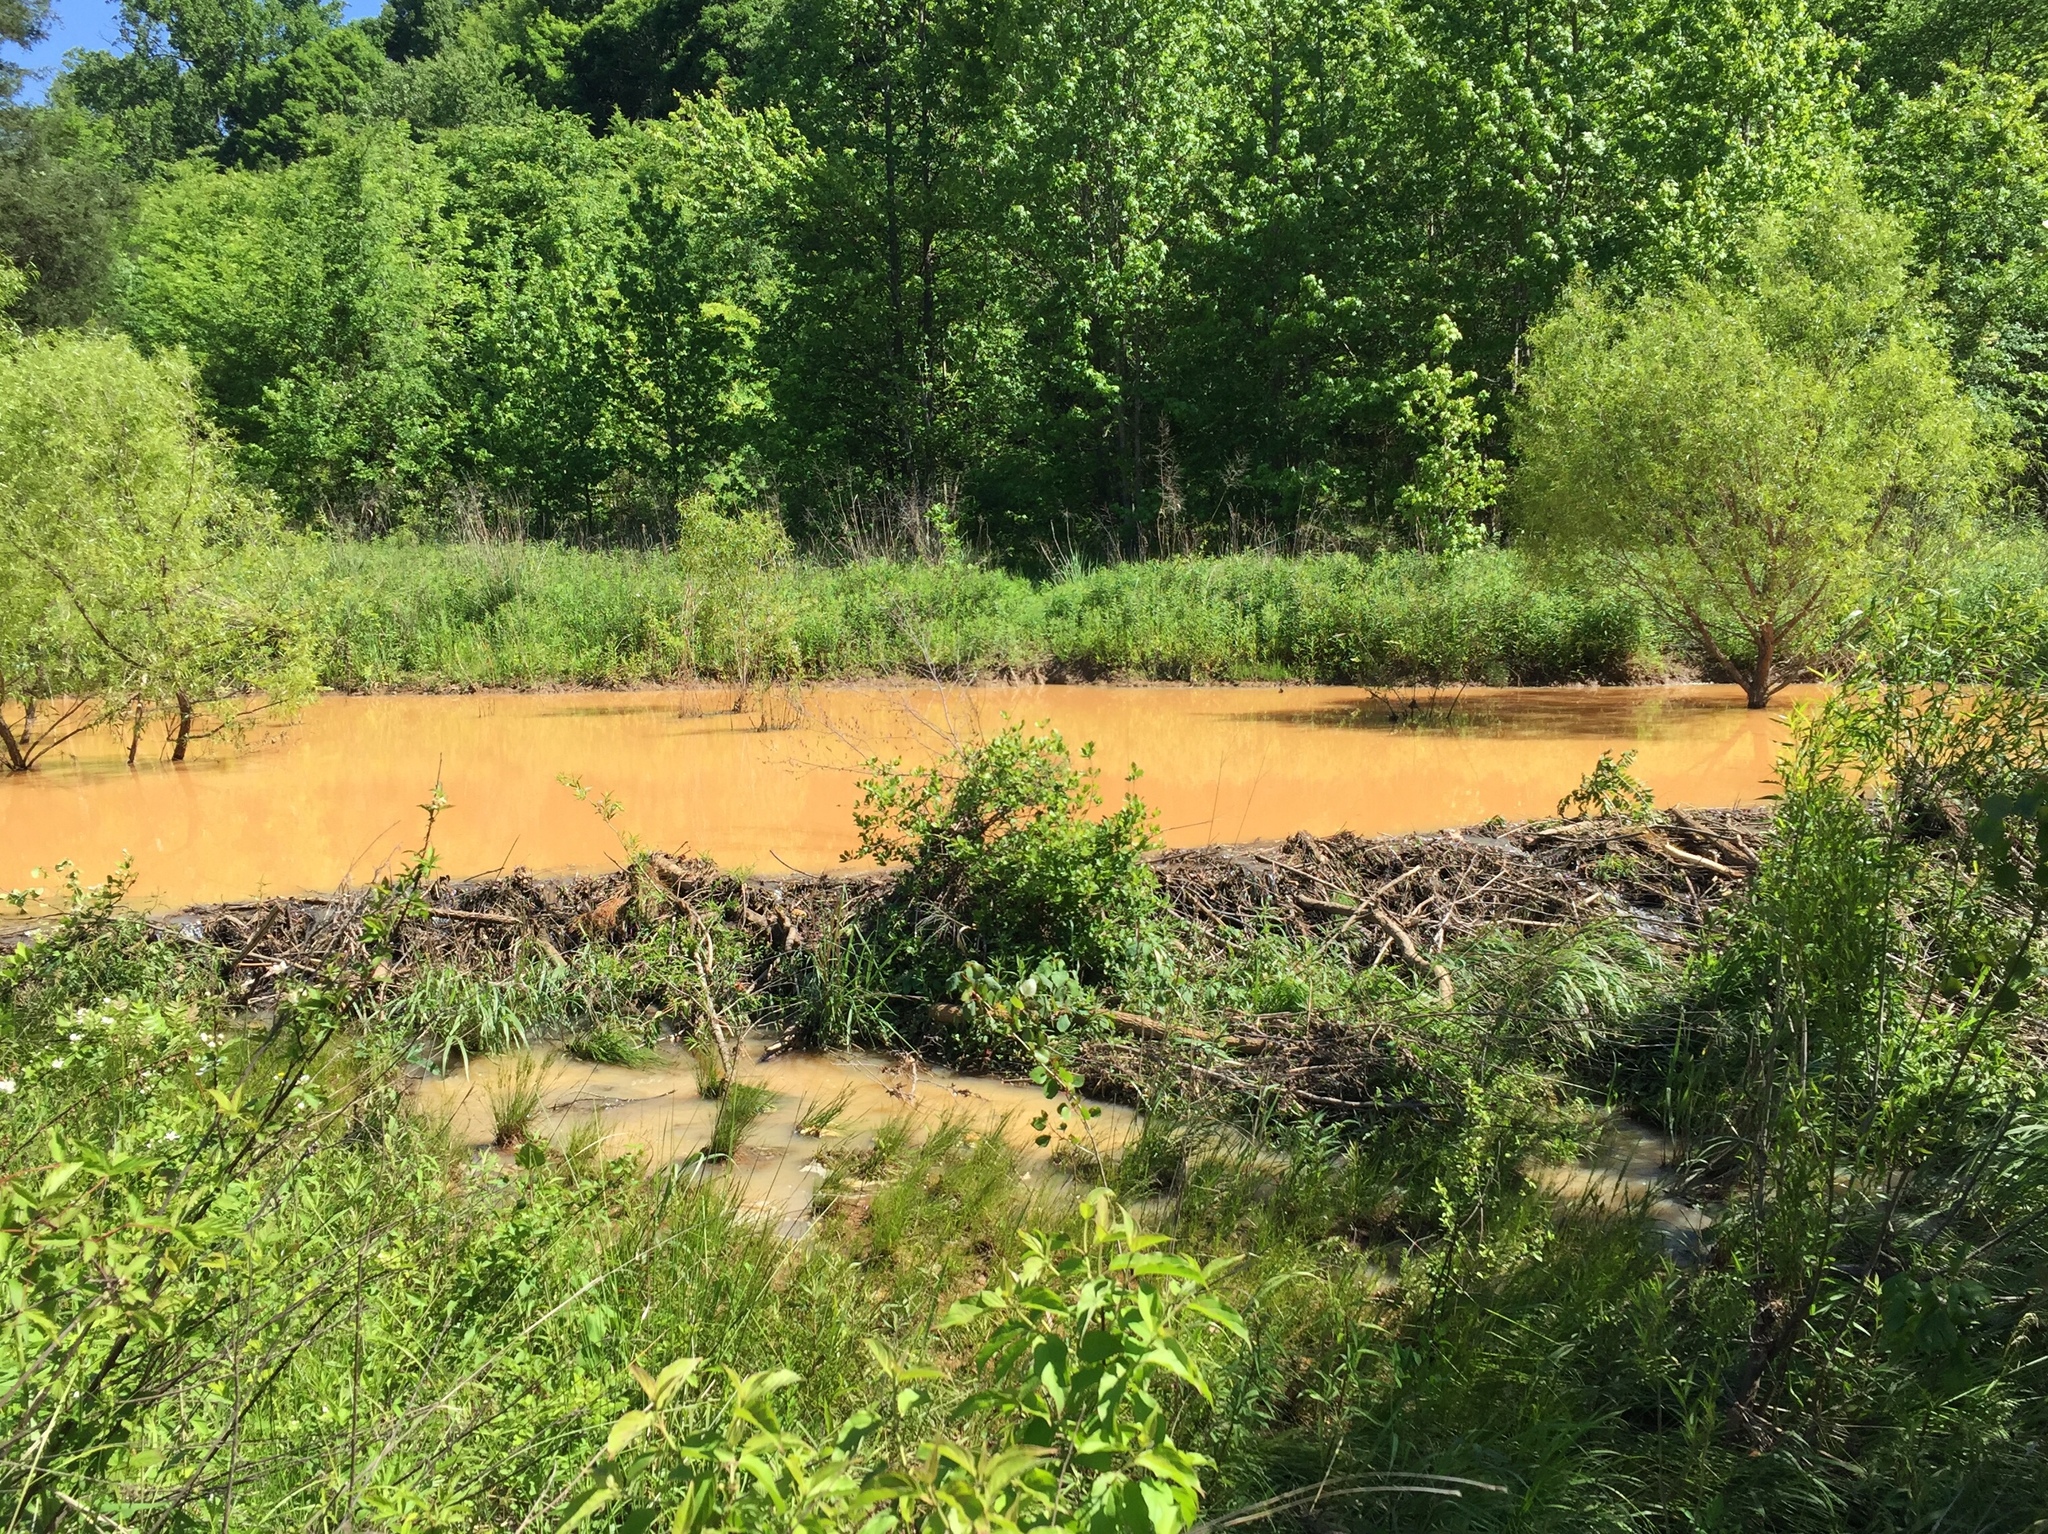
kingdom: Animalia
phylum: Chordata
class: Mammalia
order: Rodentia
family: Castoridae
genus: Castor
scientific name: Castor canadensis
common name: American beaver
